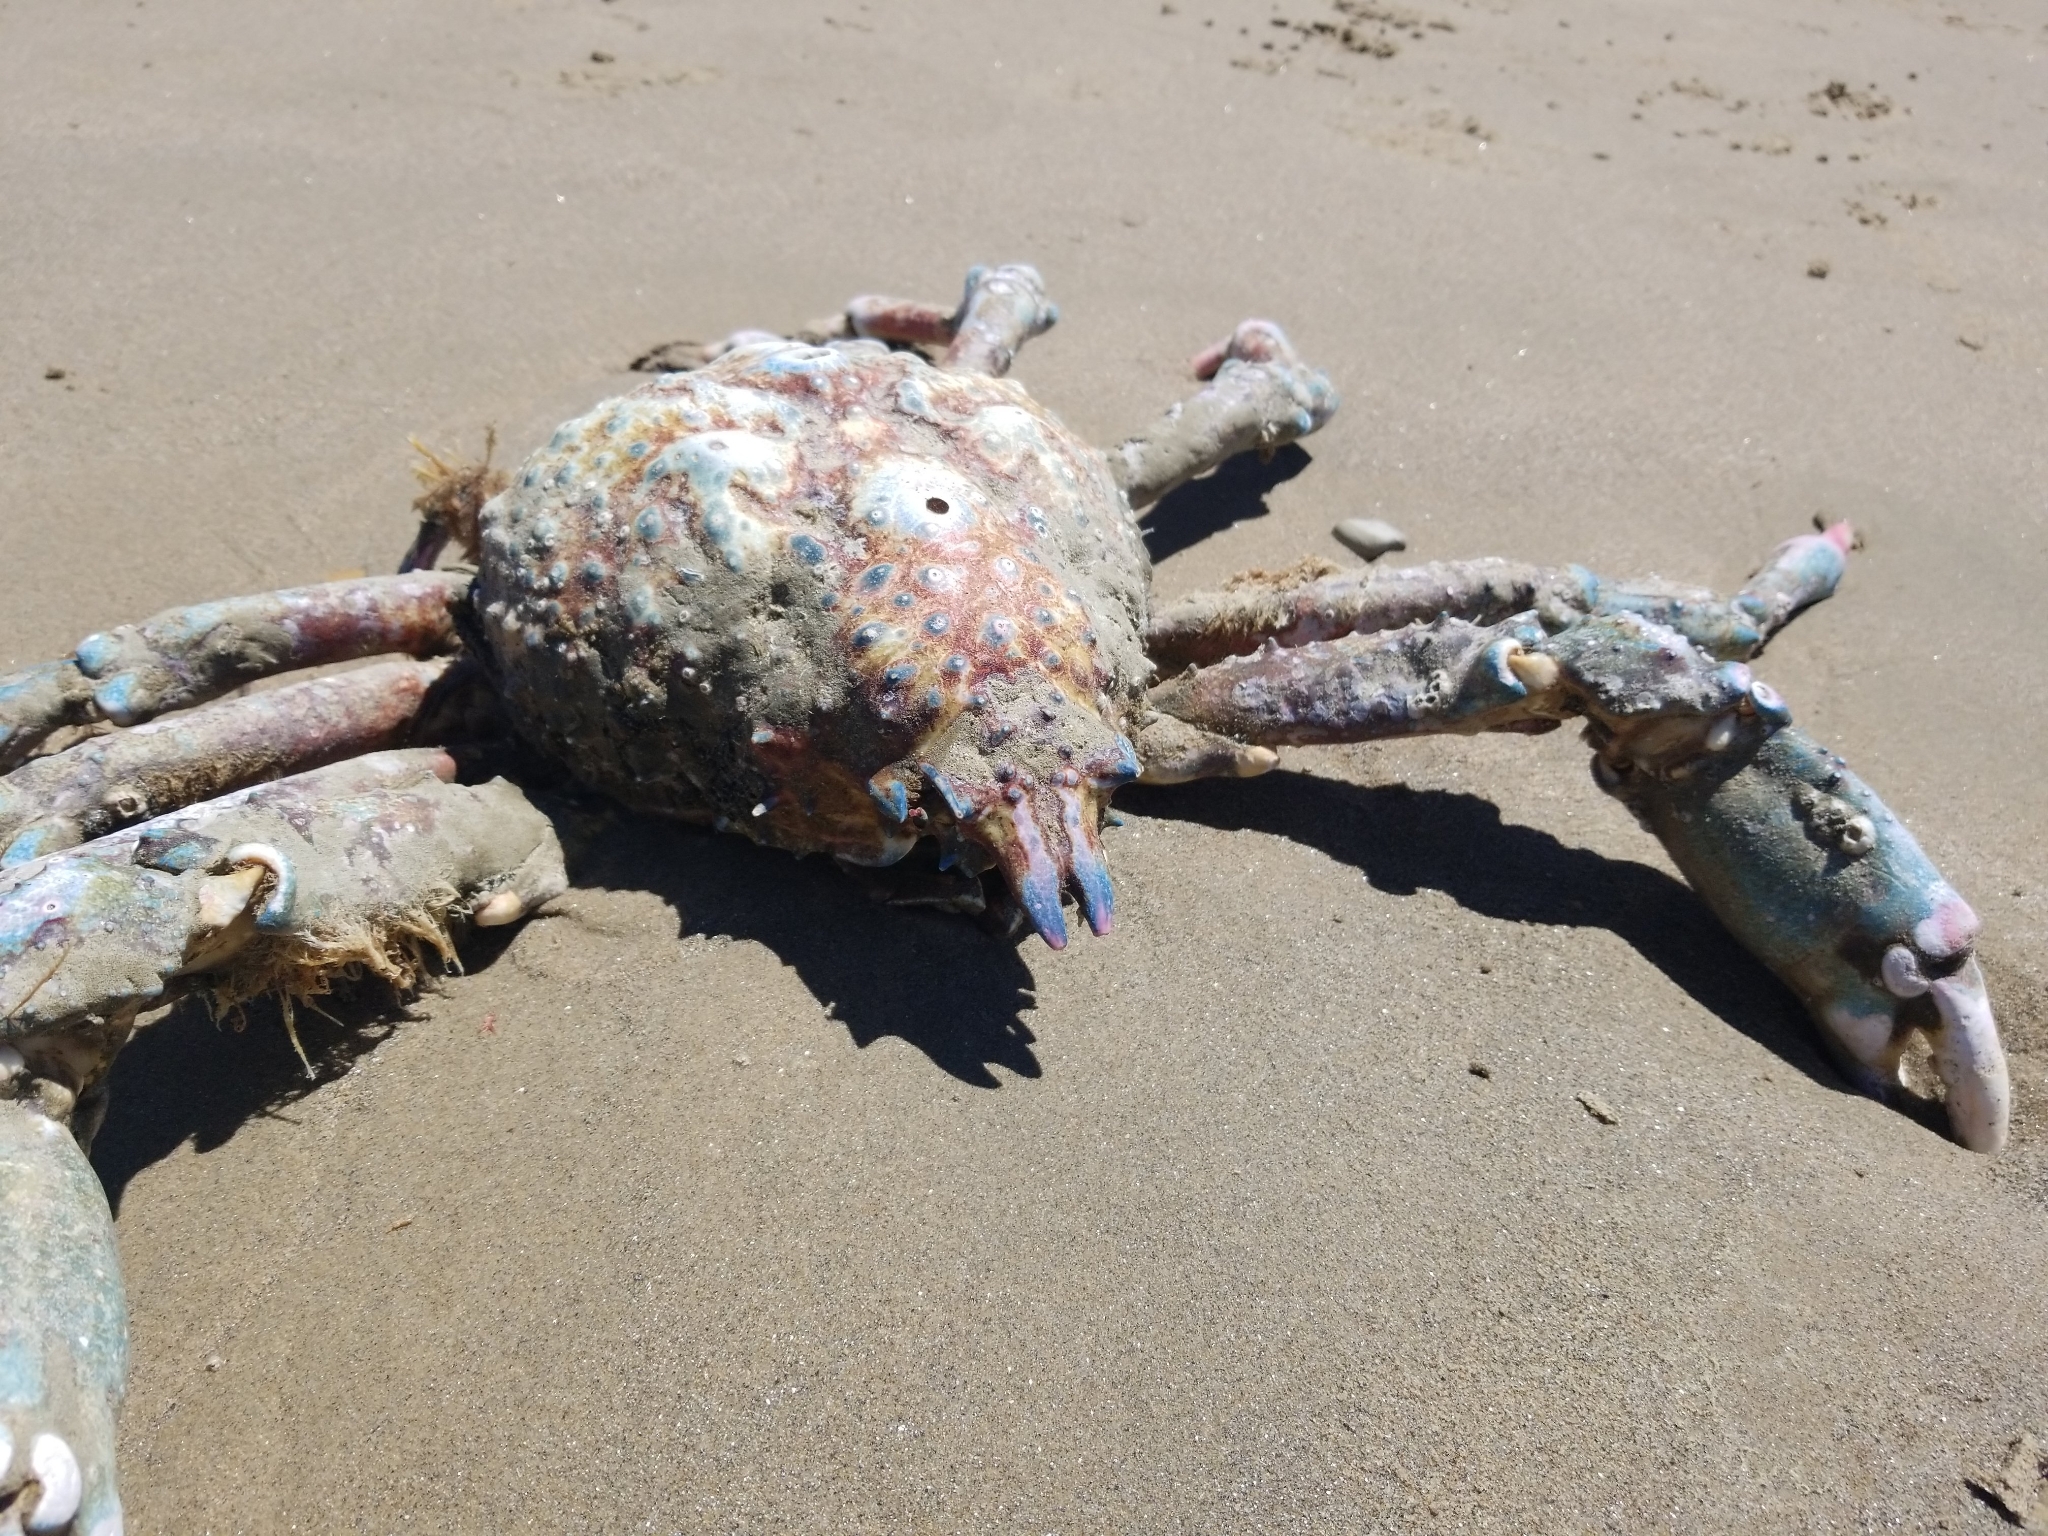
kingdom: Animalia
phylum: Arthropoda
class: Malacostraca
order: Decapoda
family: Epialtidae
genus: Loxorhynchus
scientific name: Loxorhynchus grandis
